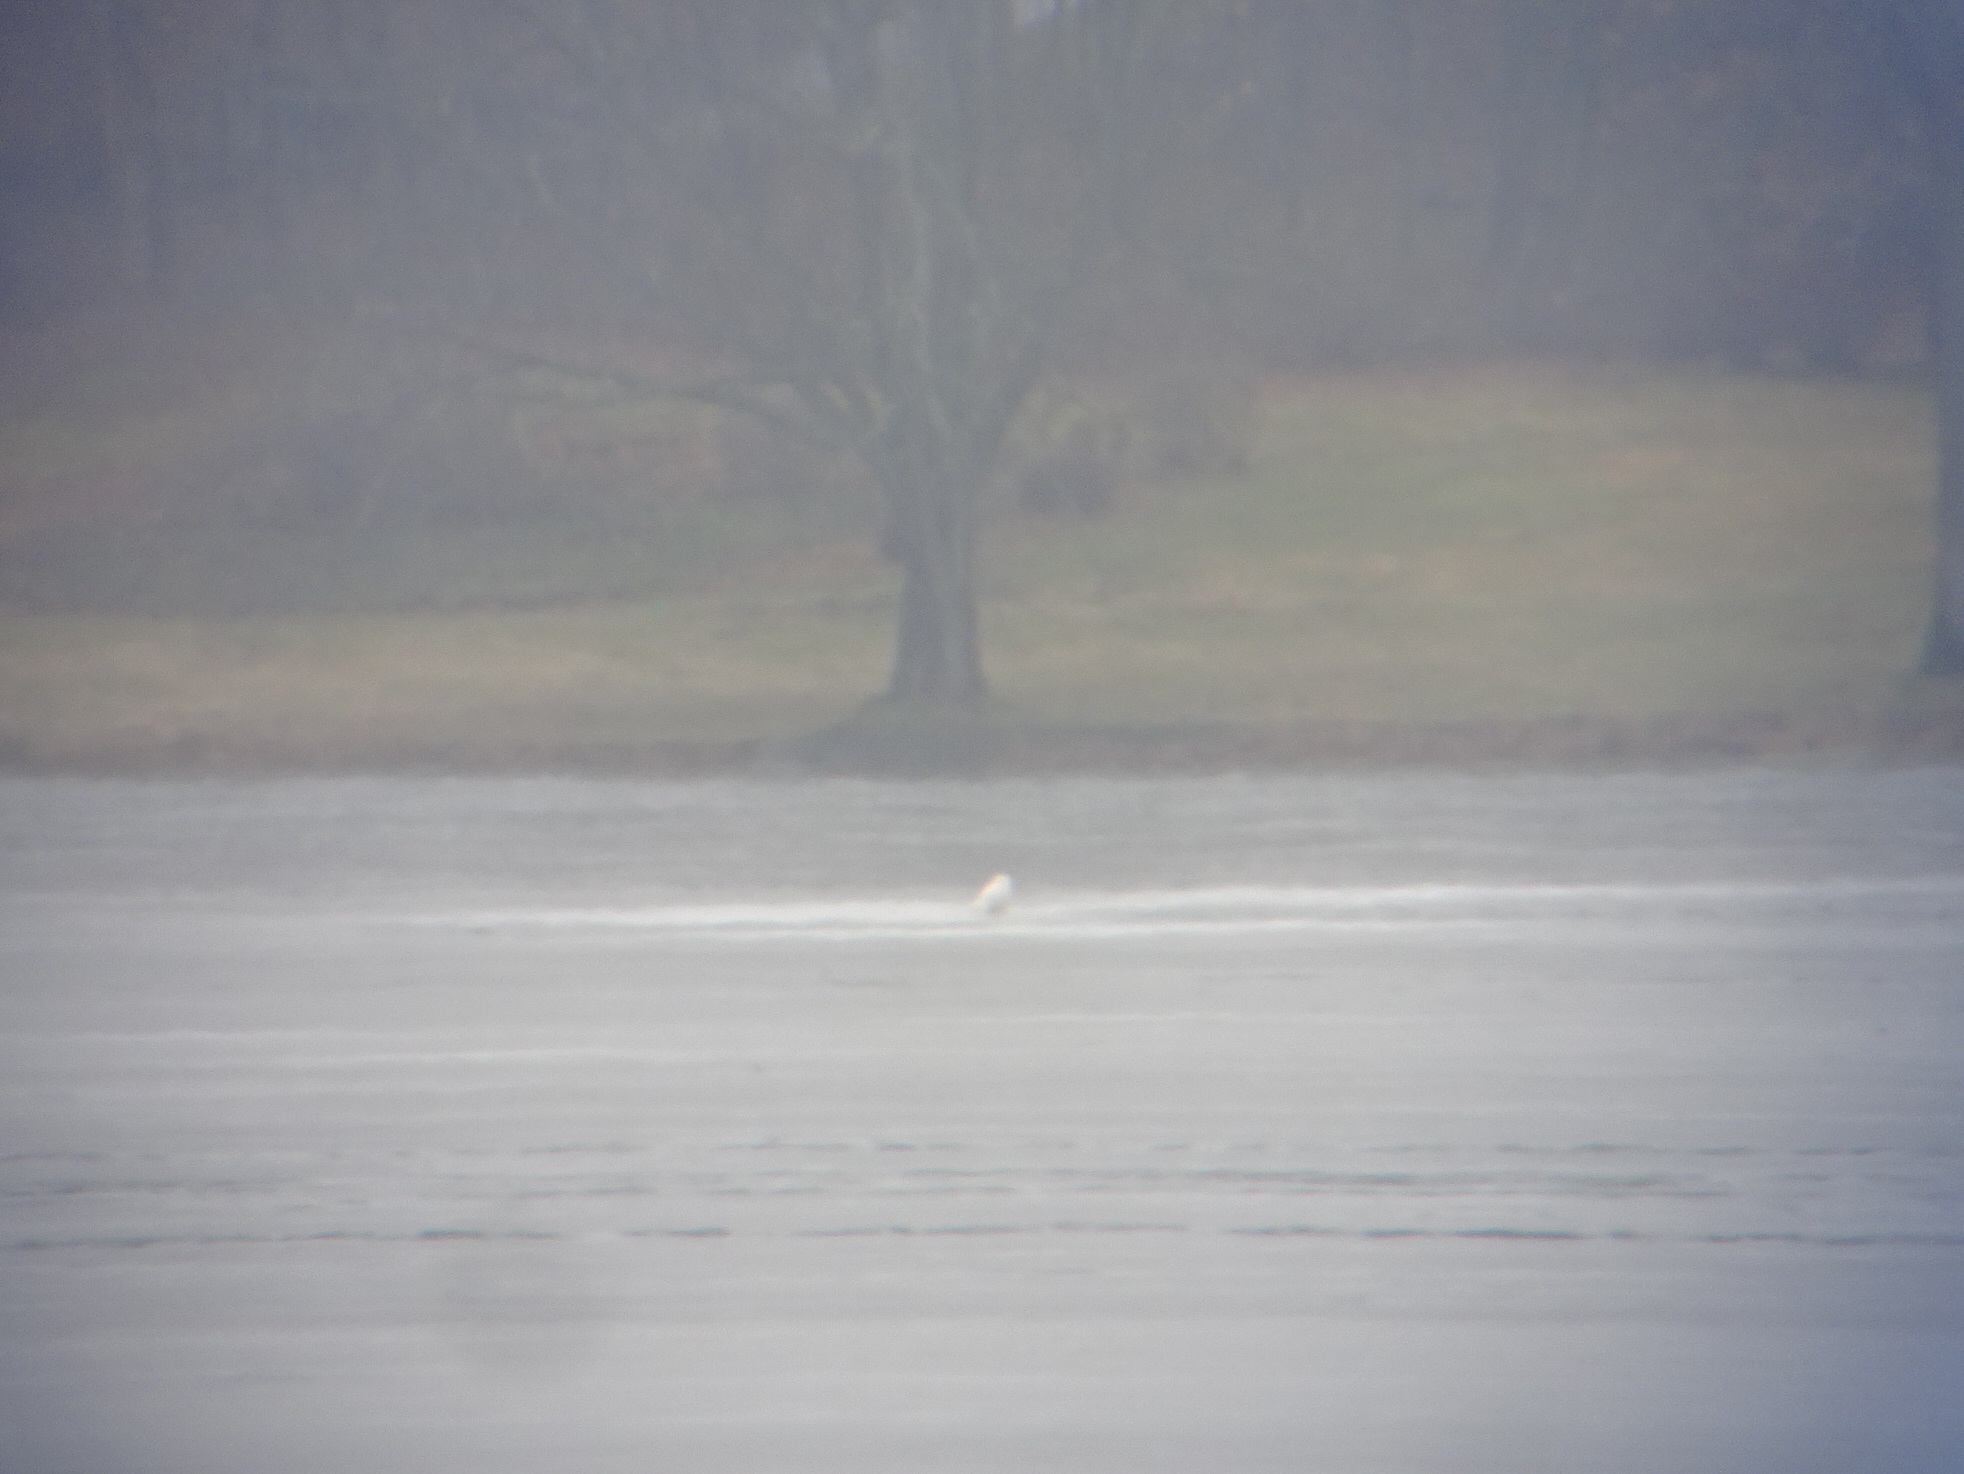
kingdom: Animalia
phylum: Chordata
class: Aves
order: Strigiformes
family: Strigidae
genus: Bubo
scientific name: Bubo scandiacus
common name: Snowy owl
